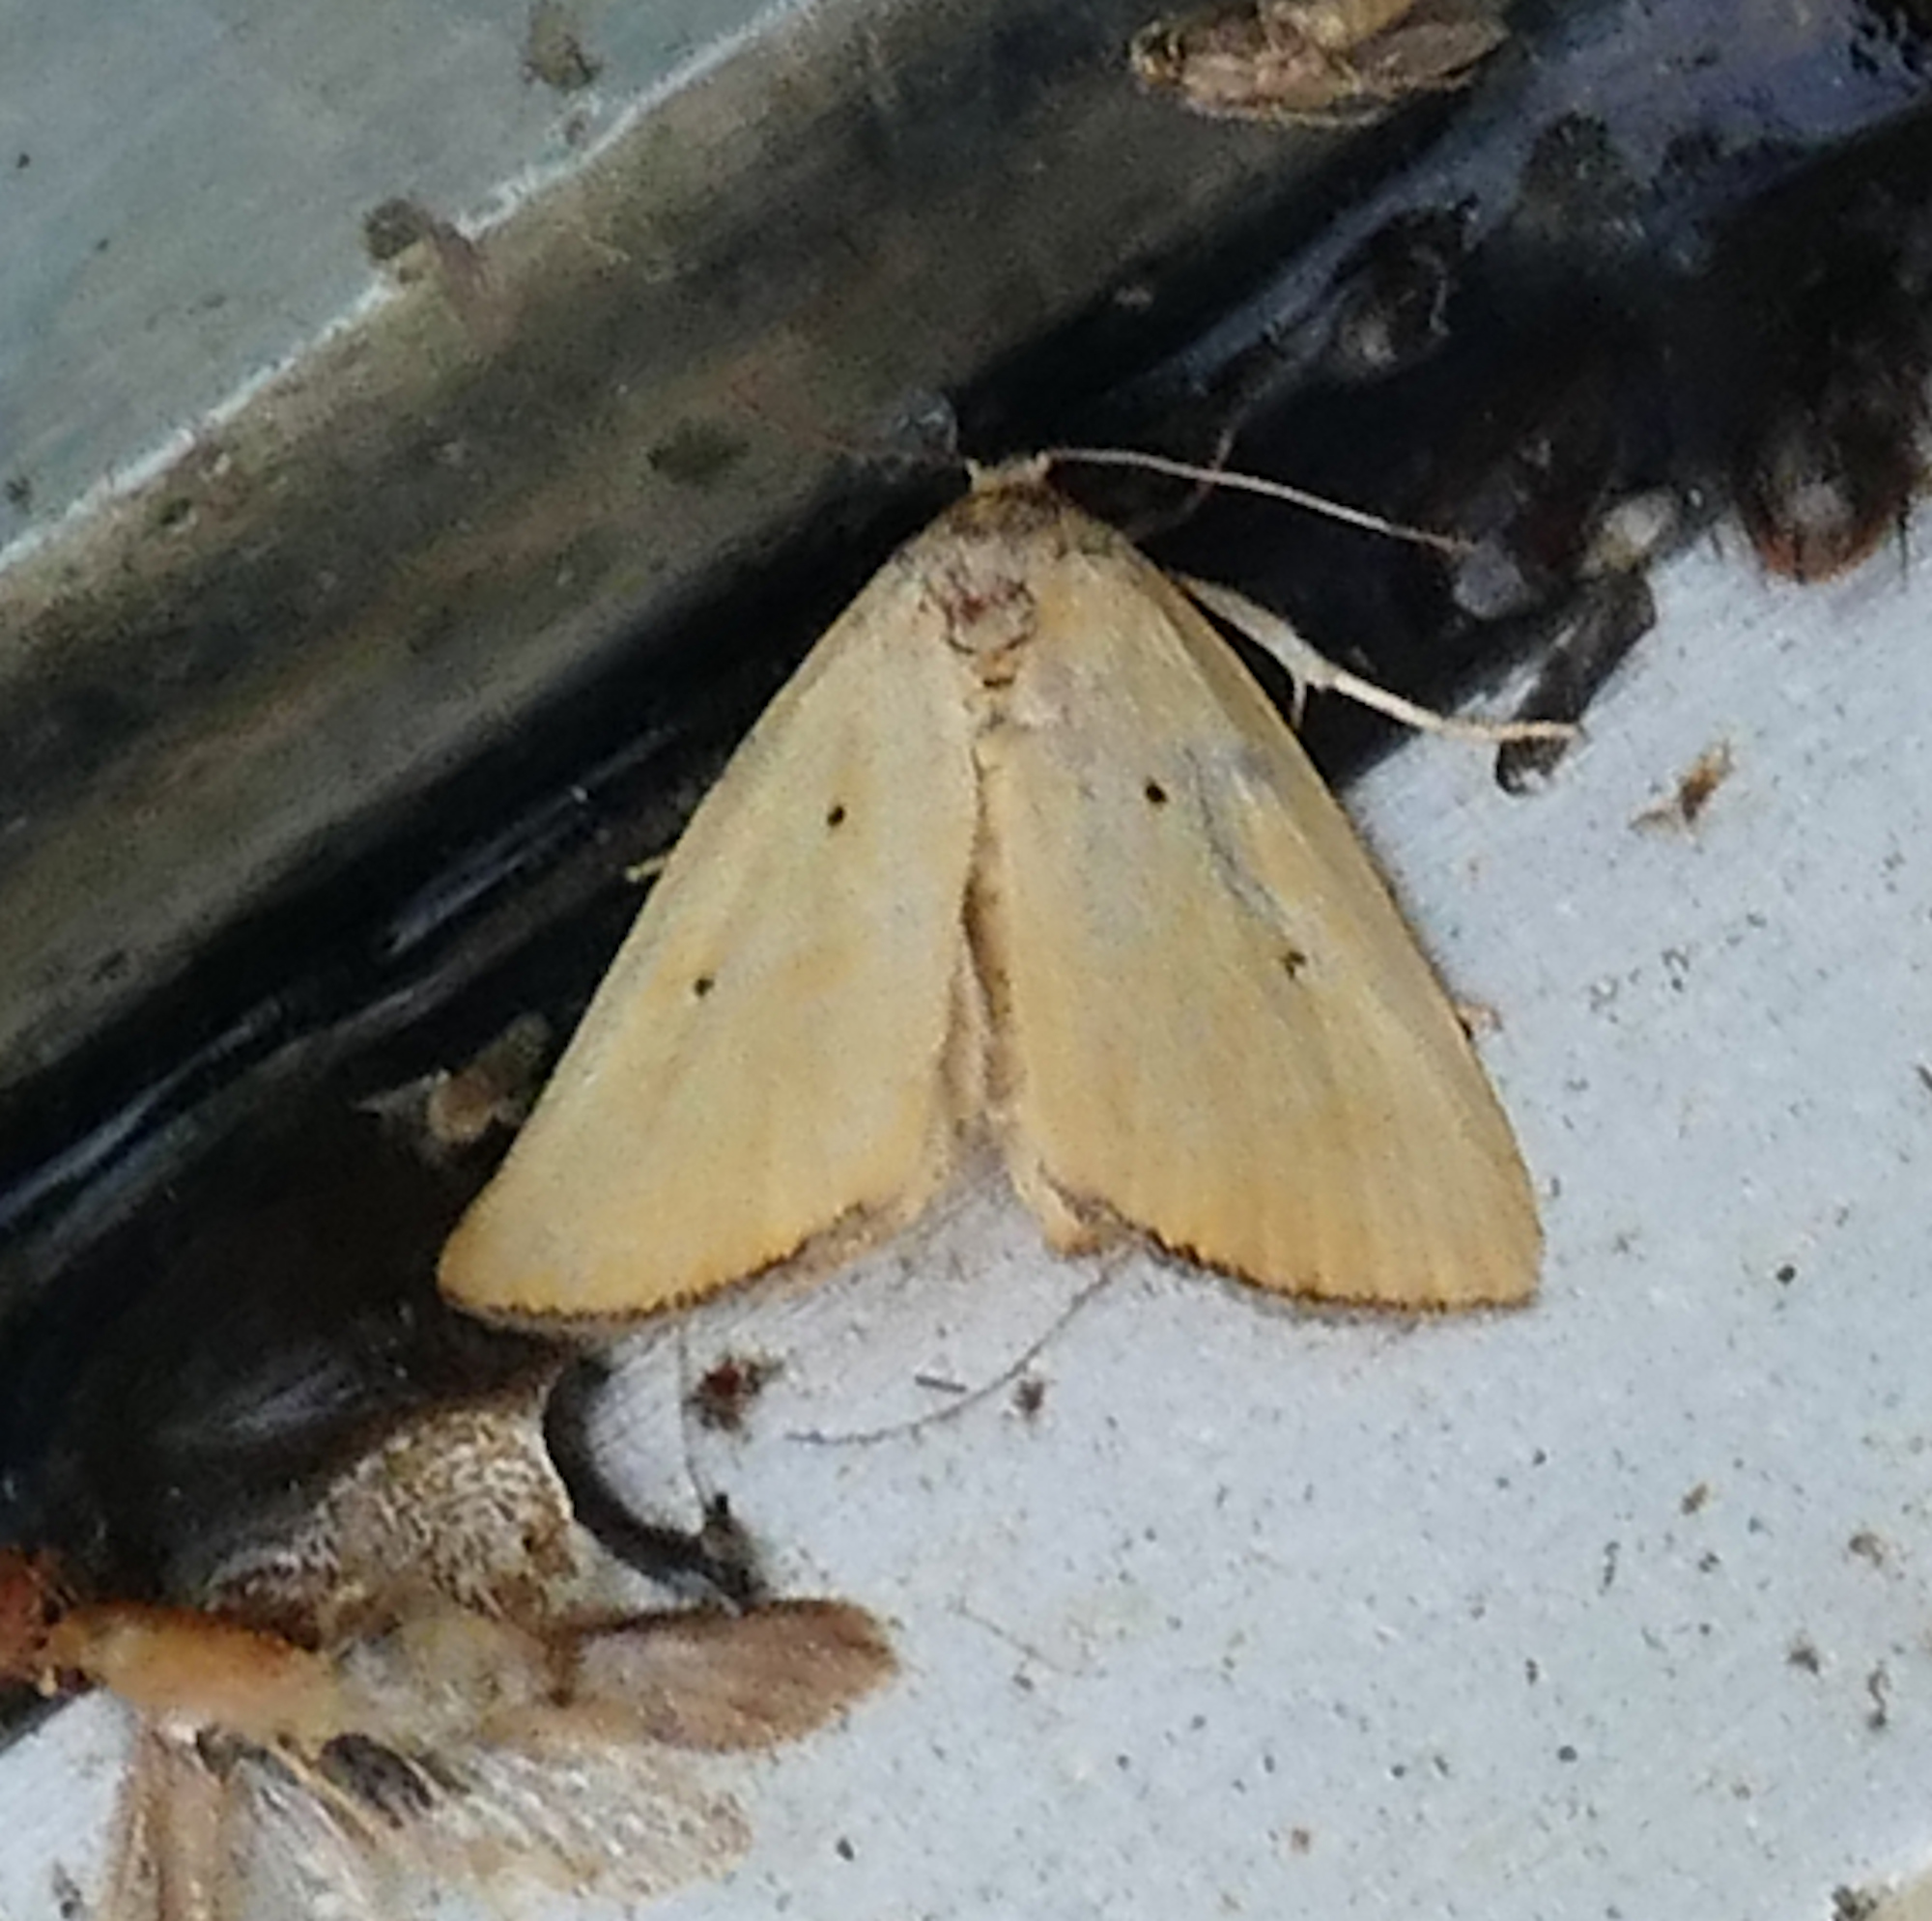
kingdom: Animalia
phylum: Arthropoda
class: Insecta
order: Lepidoptera
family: Noctuidae
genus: Marimatha
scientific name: Marimatha nigrofimbria
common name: Black-bordered lemon moth
